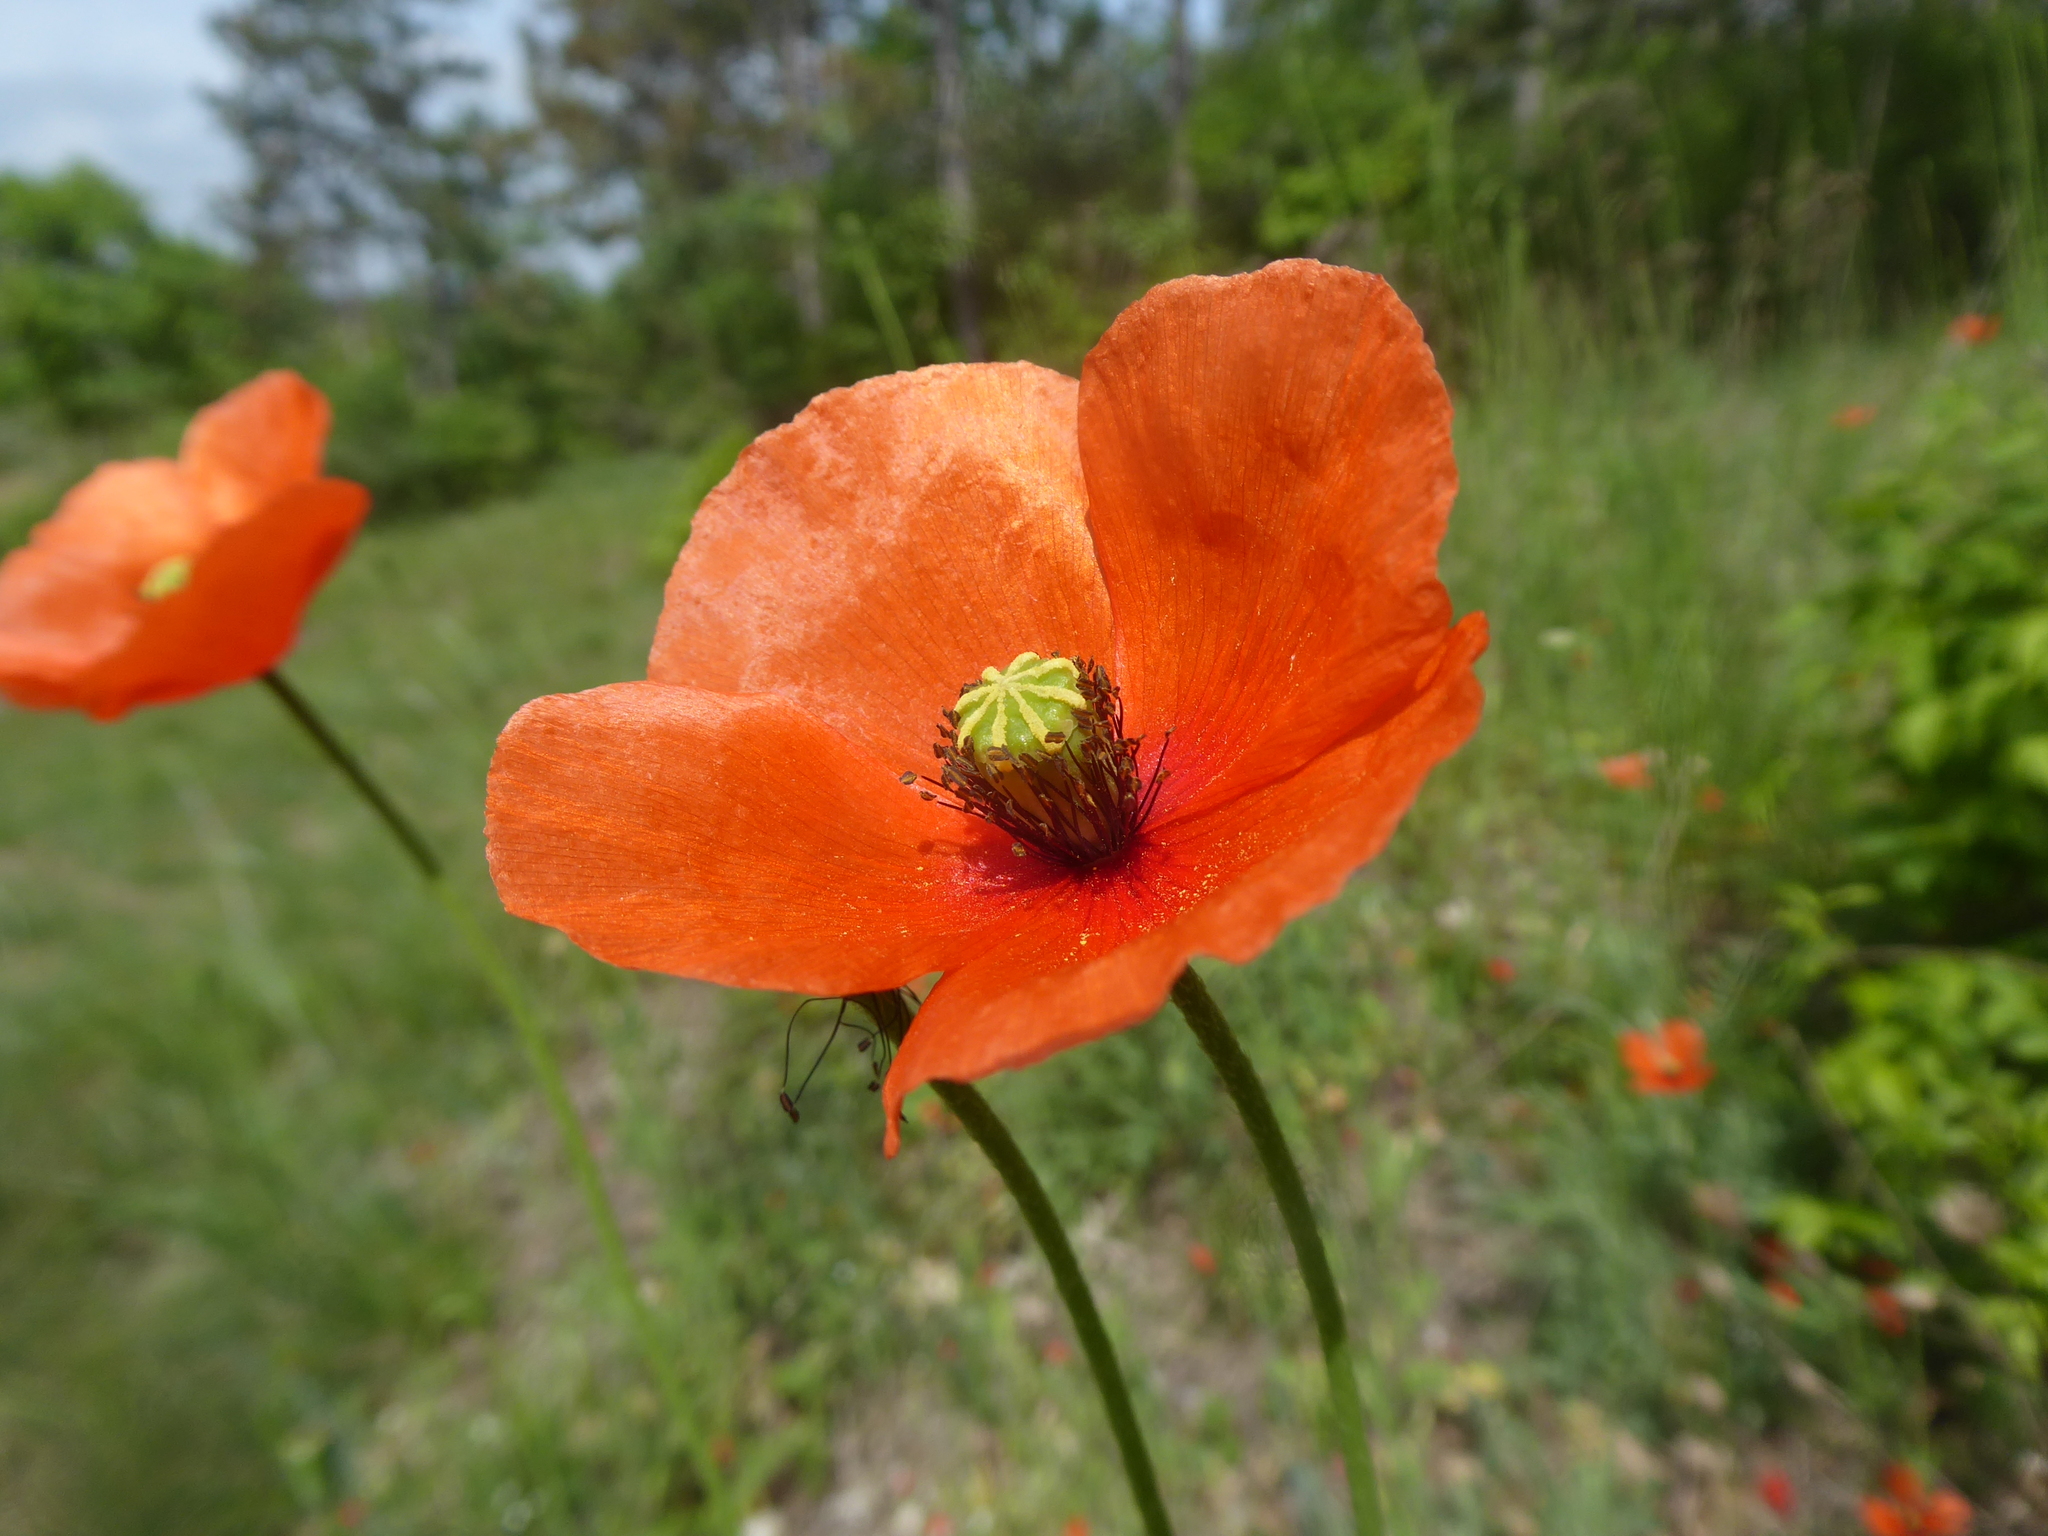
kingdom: Plantae
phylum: Tracheophyta
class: Magnoliopsida
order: Ranunculales
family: Papaveraceae
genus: Papaver
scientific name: Papaver dubium
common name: Long-headed poppy
